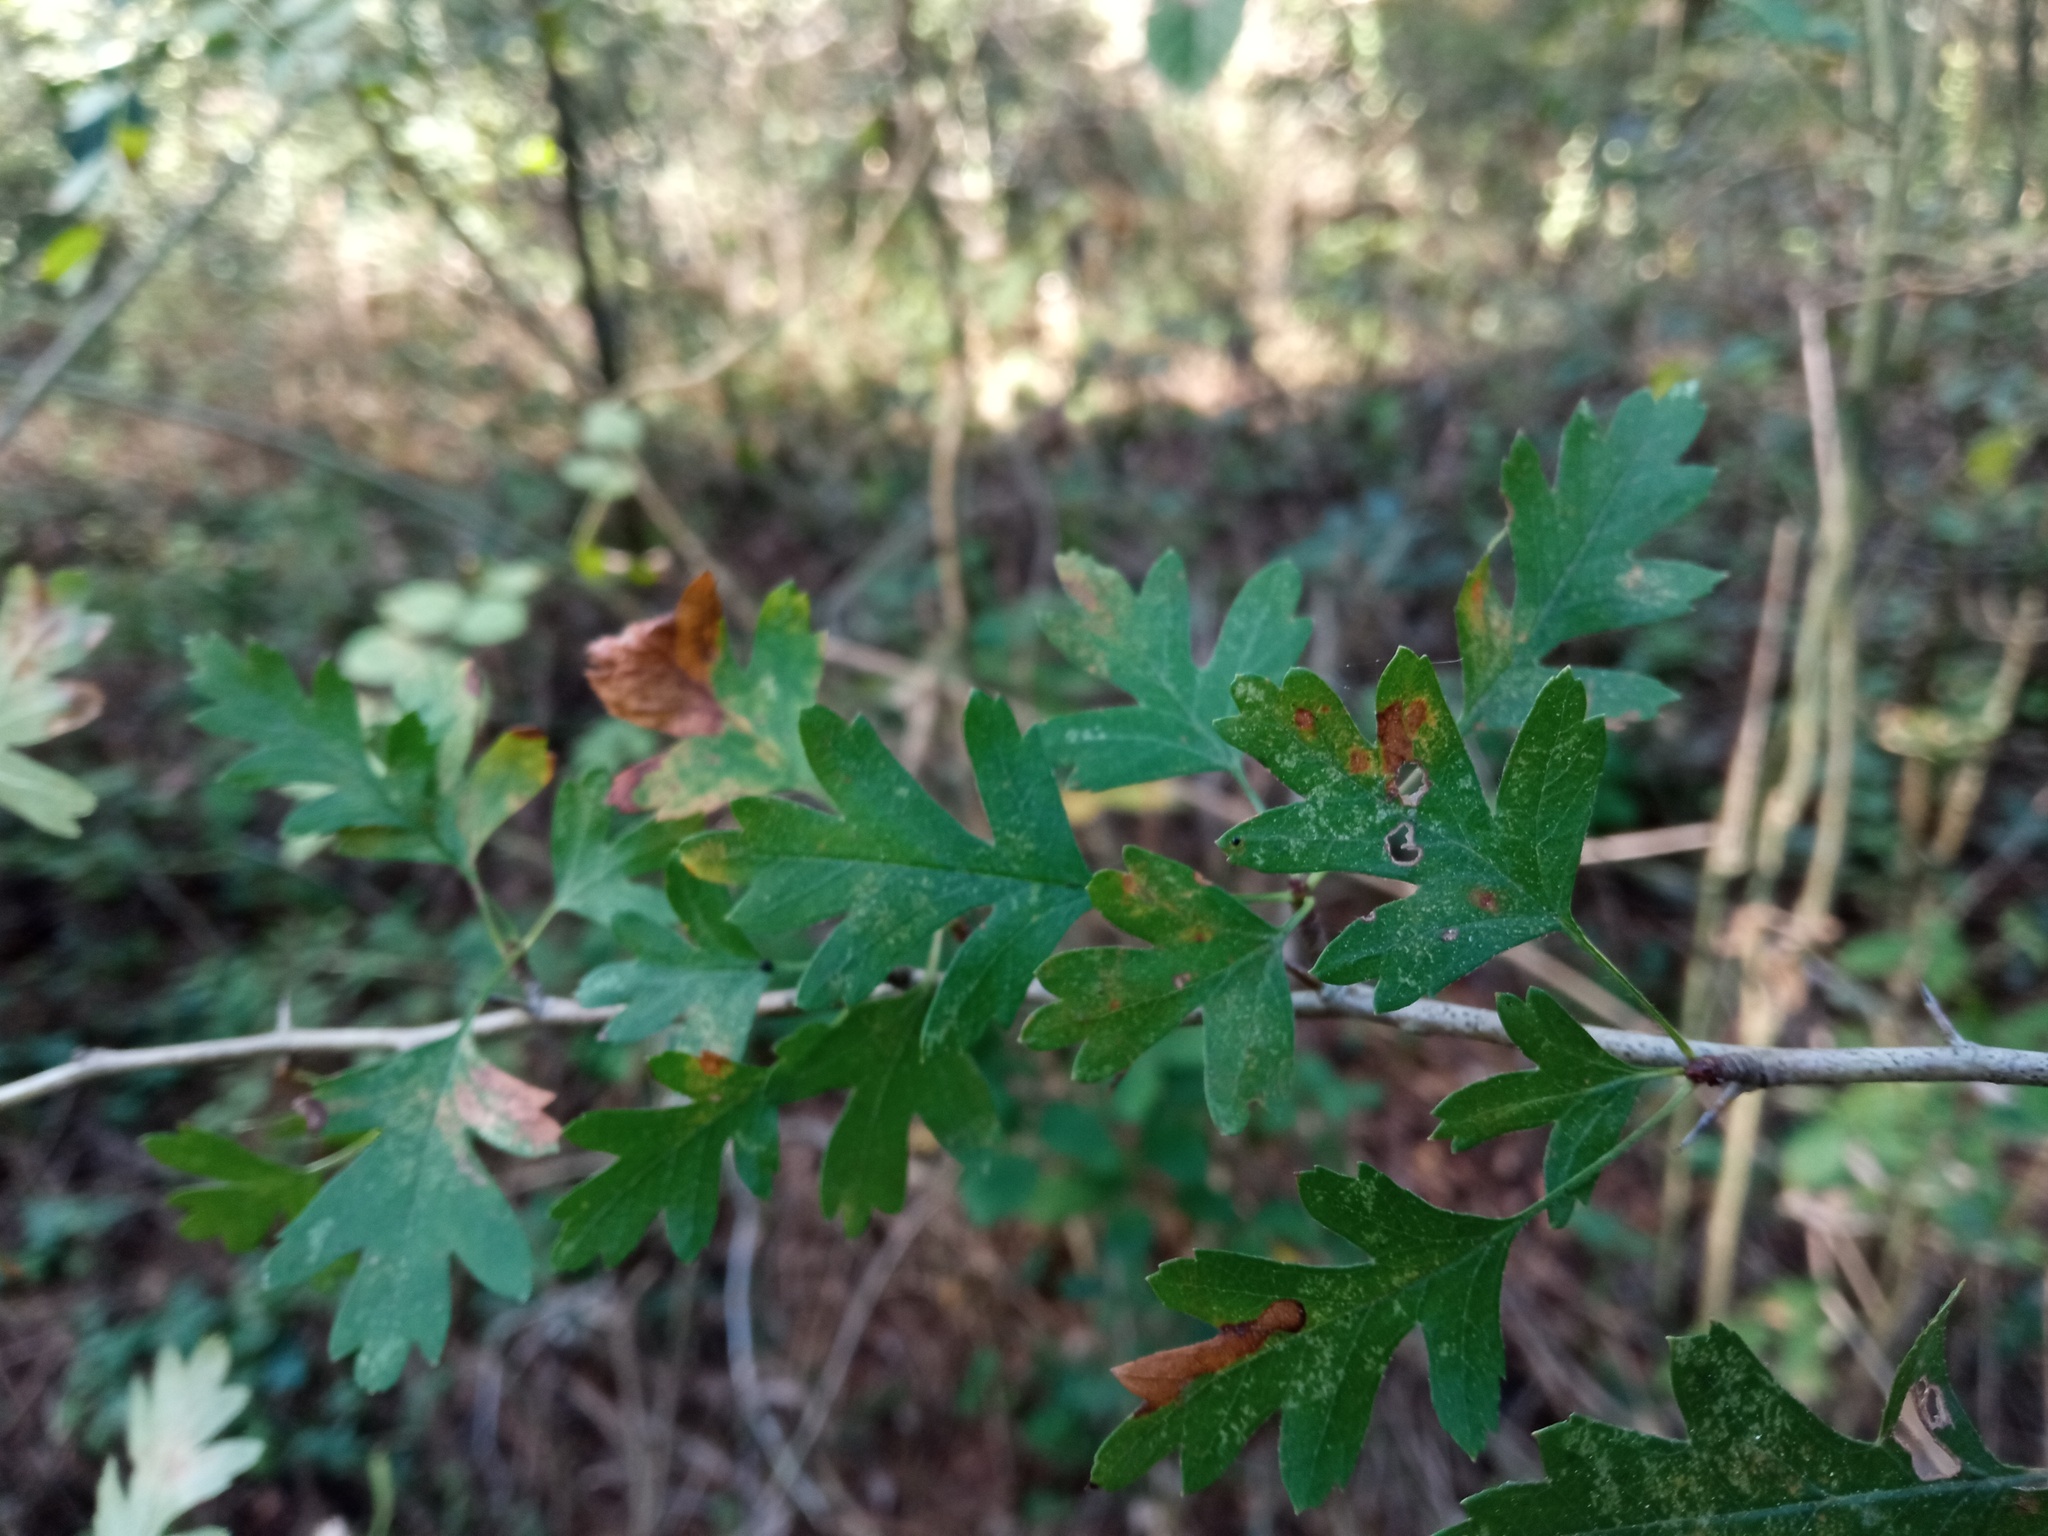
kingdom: Plantae
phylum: Tracheophyta
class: Magnoliopsida
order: Rosales
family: Rosaceae
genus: Crataegus
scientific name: Crataegus monogyna
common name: Hawthorn
